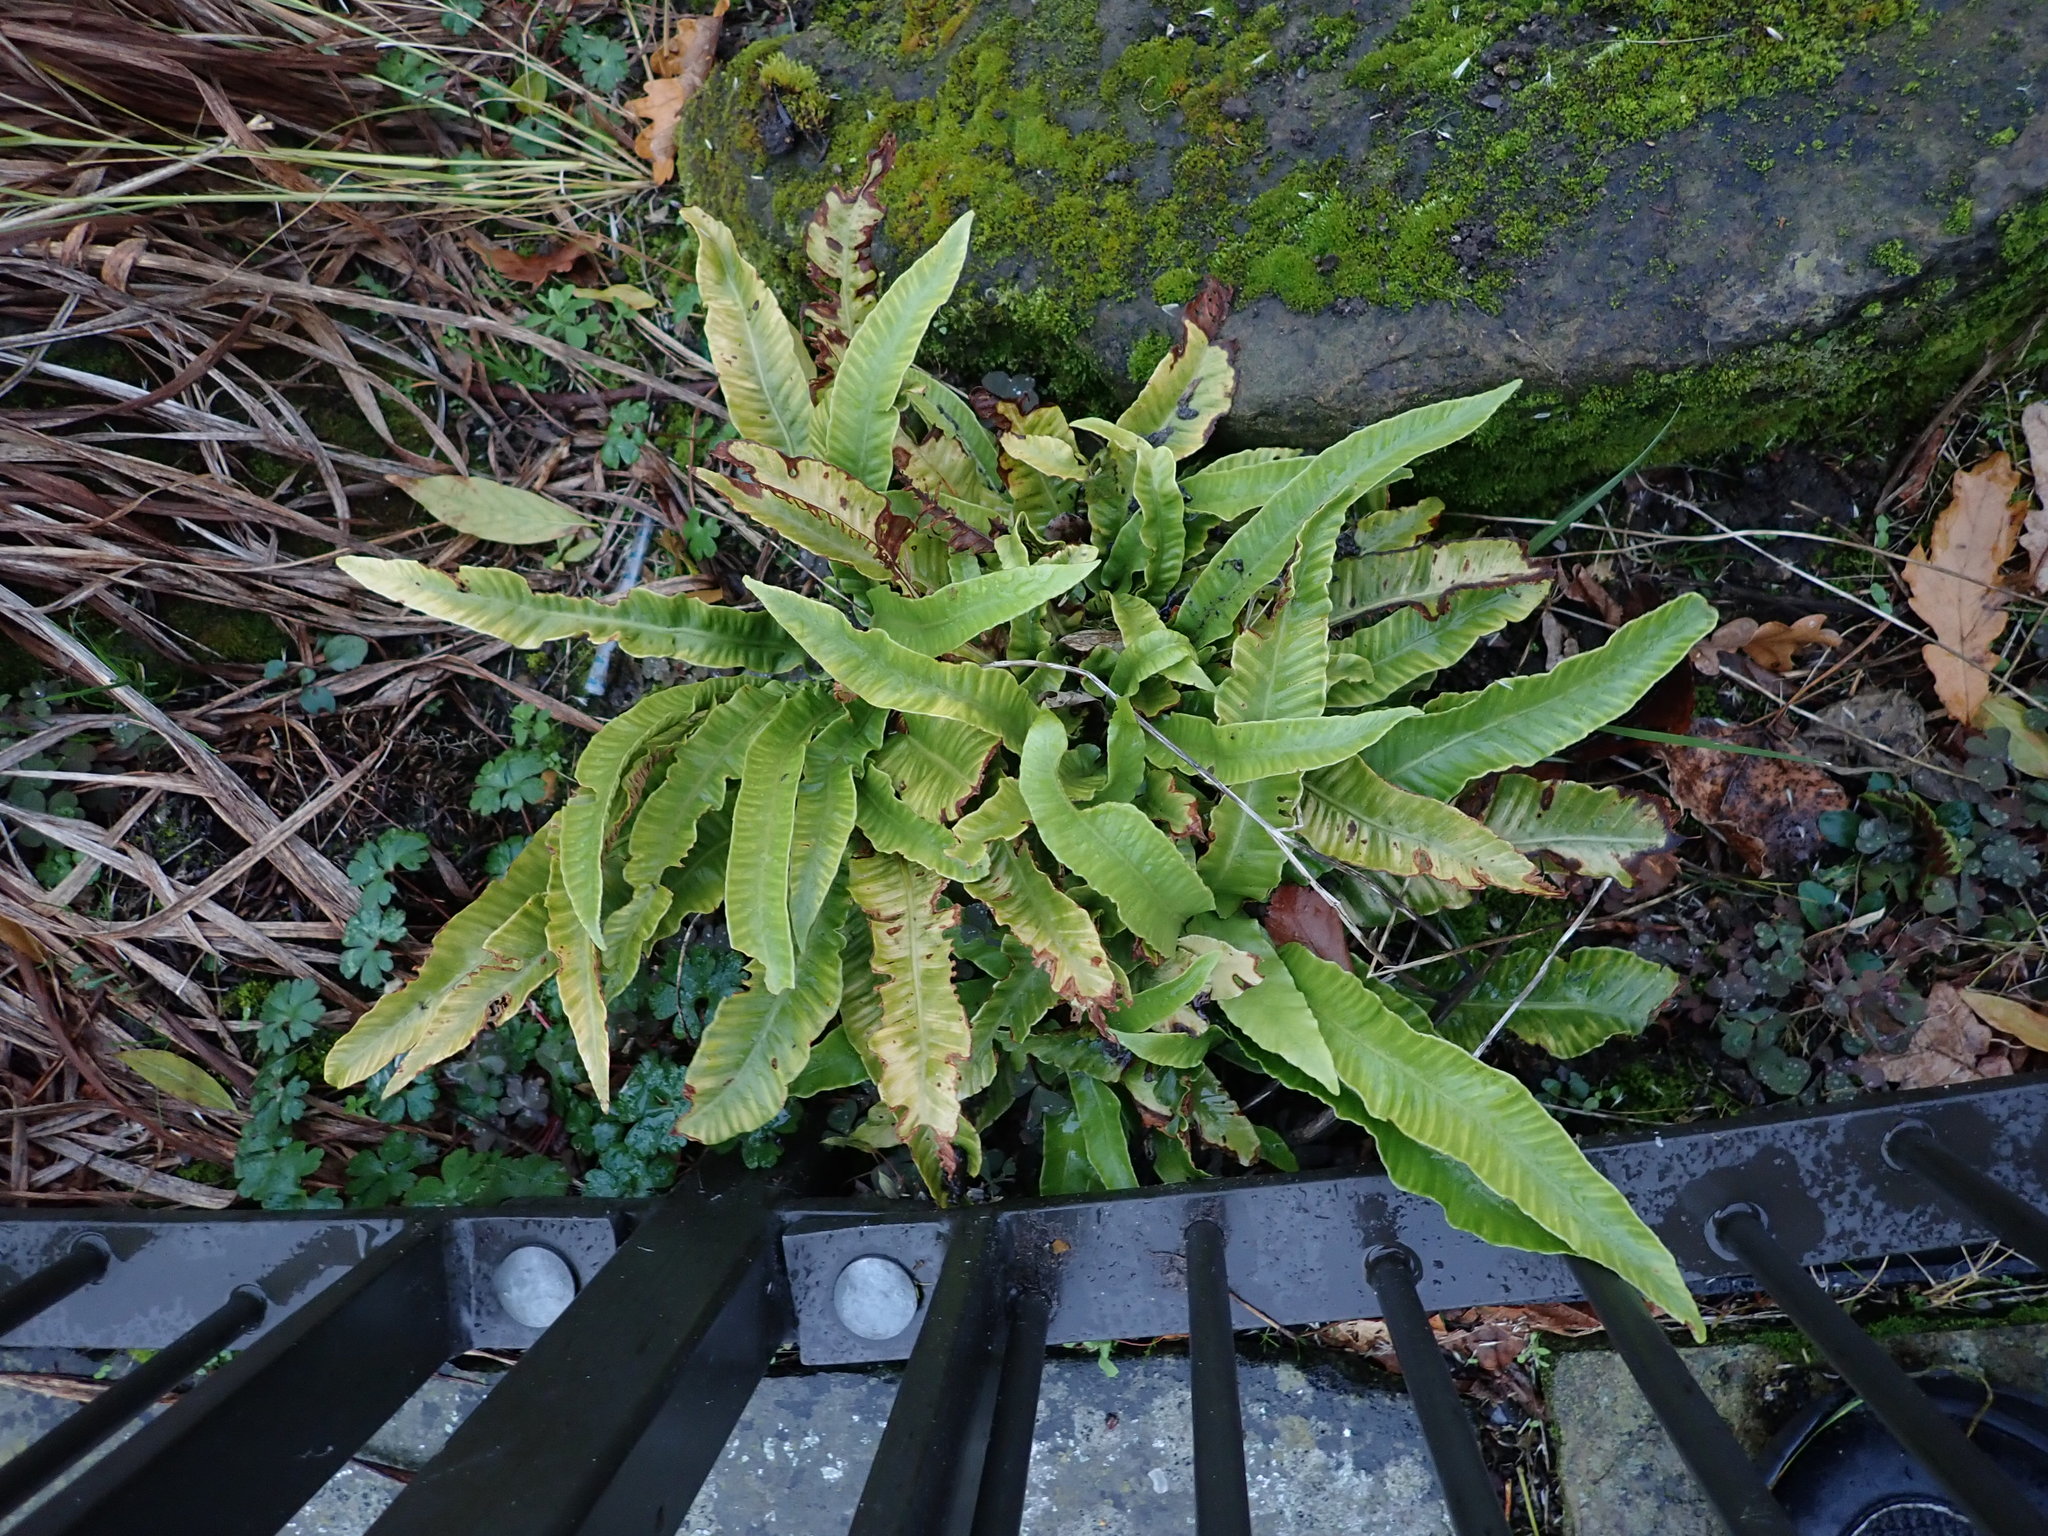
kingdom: Plantae
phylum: Tracheophyta
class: Polypodiopsida
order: Polypodiales
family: Aspleniaceae
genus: Asplenium
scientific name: Asplenium scolopendrium
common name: Hart's-tongue fern
